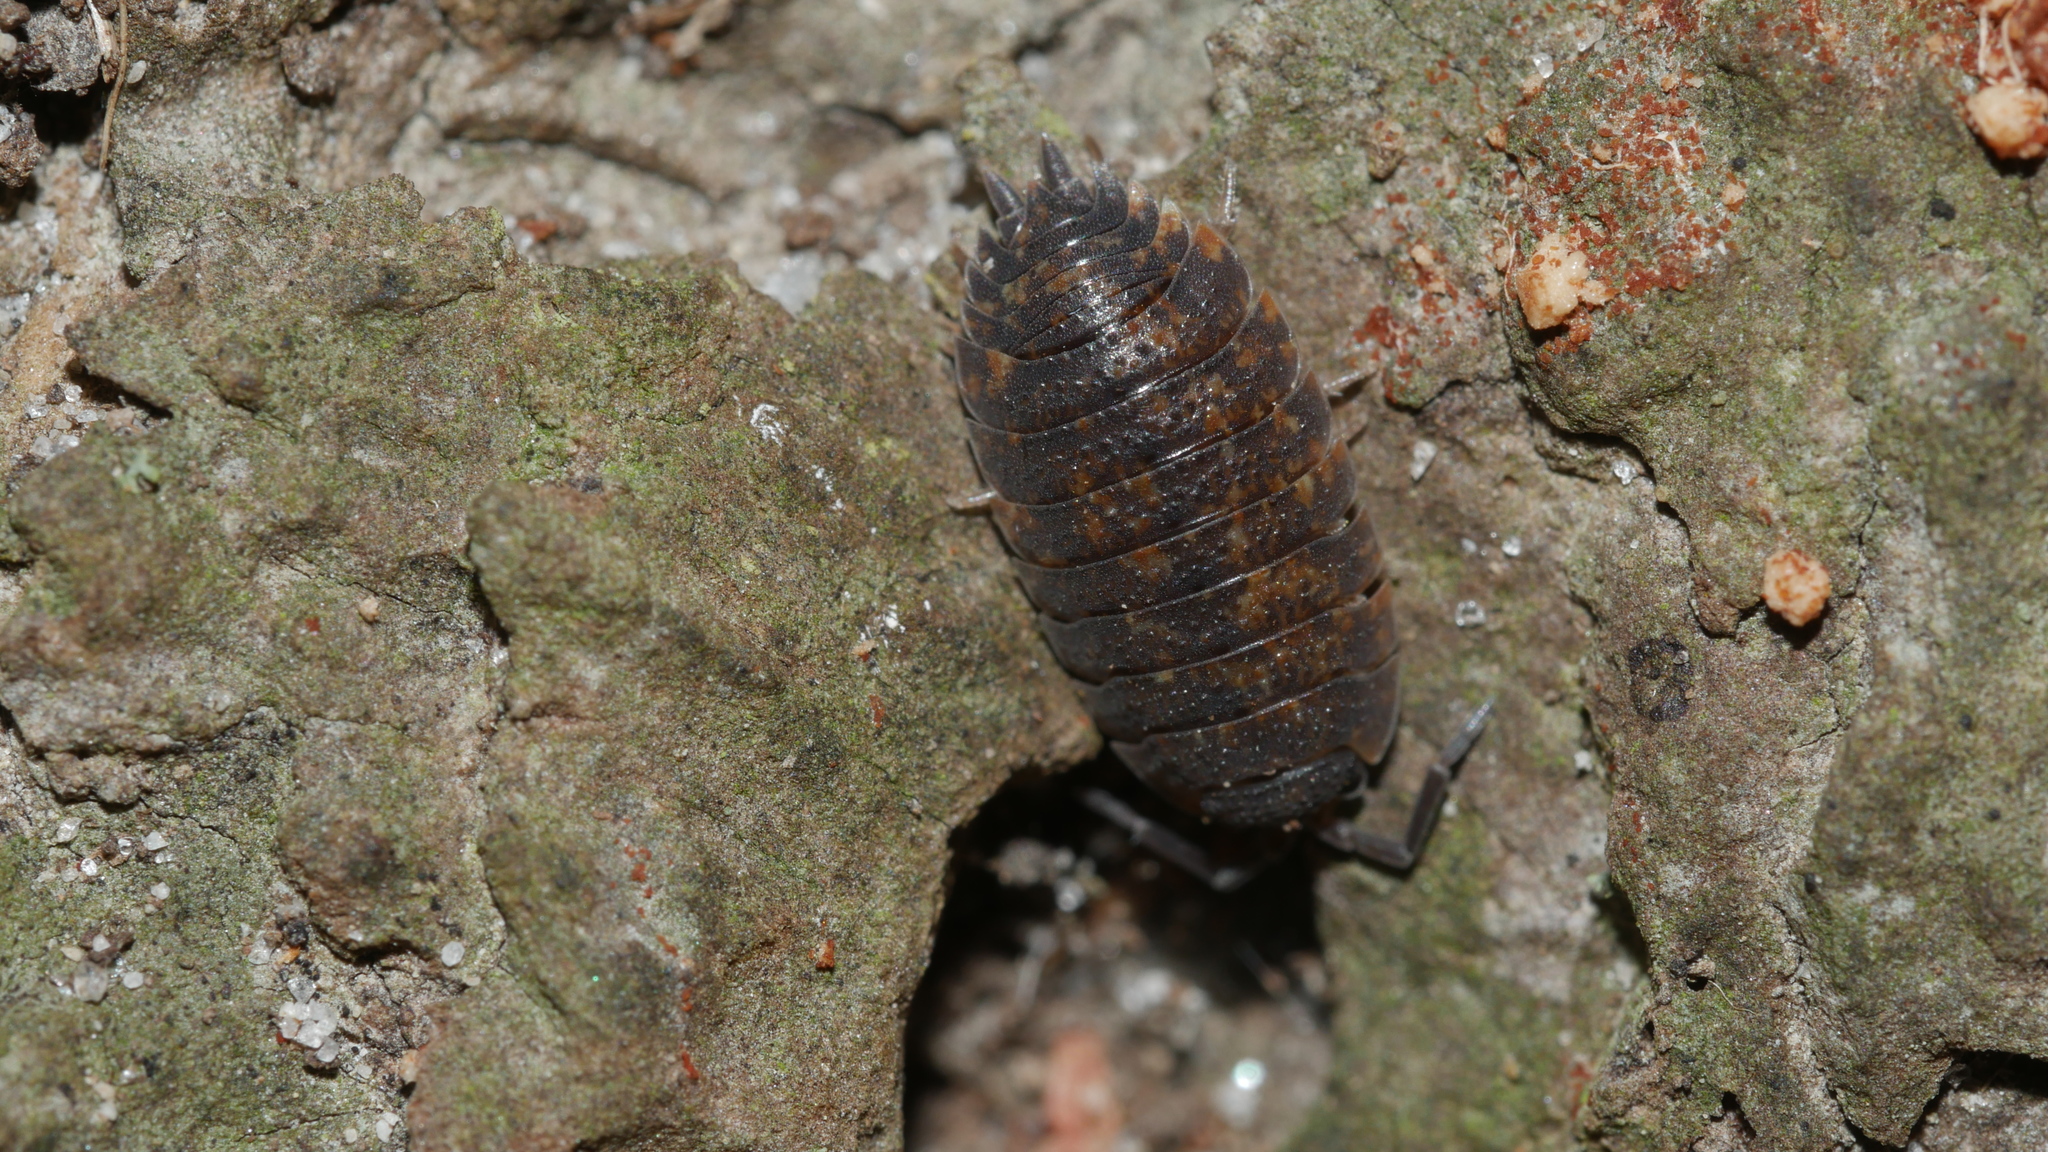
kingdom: Animalia
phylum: Arthropoda
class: Malacostraca
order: Isopoda
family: Porcellionidae
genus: Porcellio
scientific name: Porcellio scaber
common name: Common rough woodlouse
